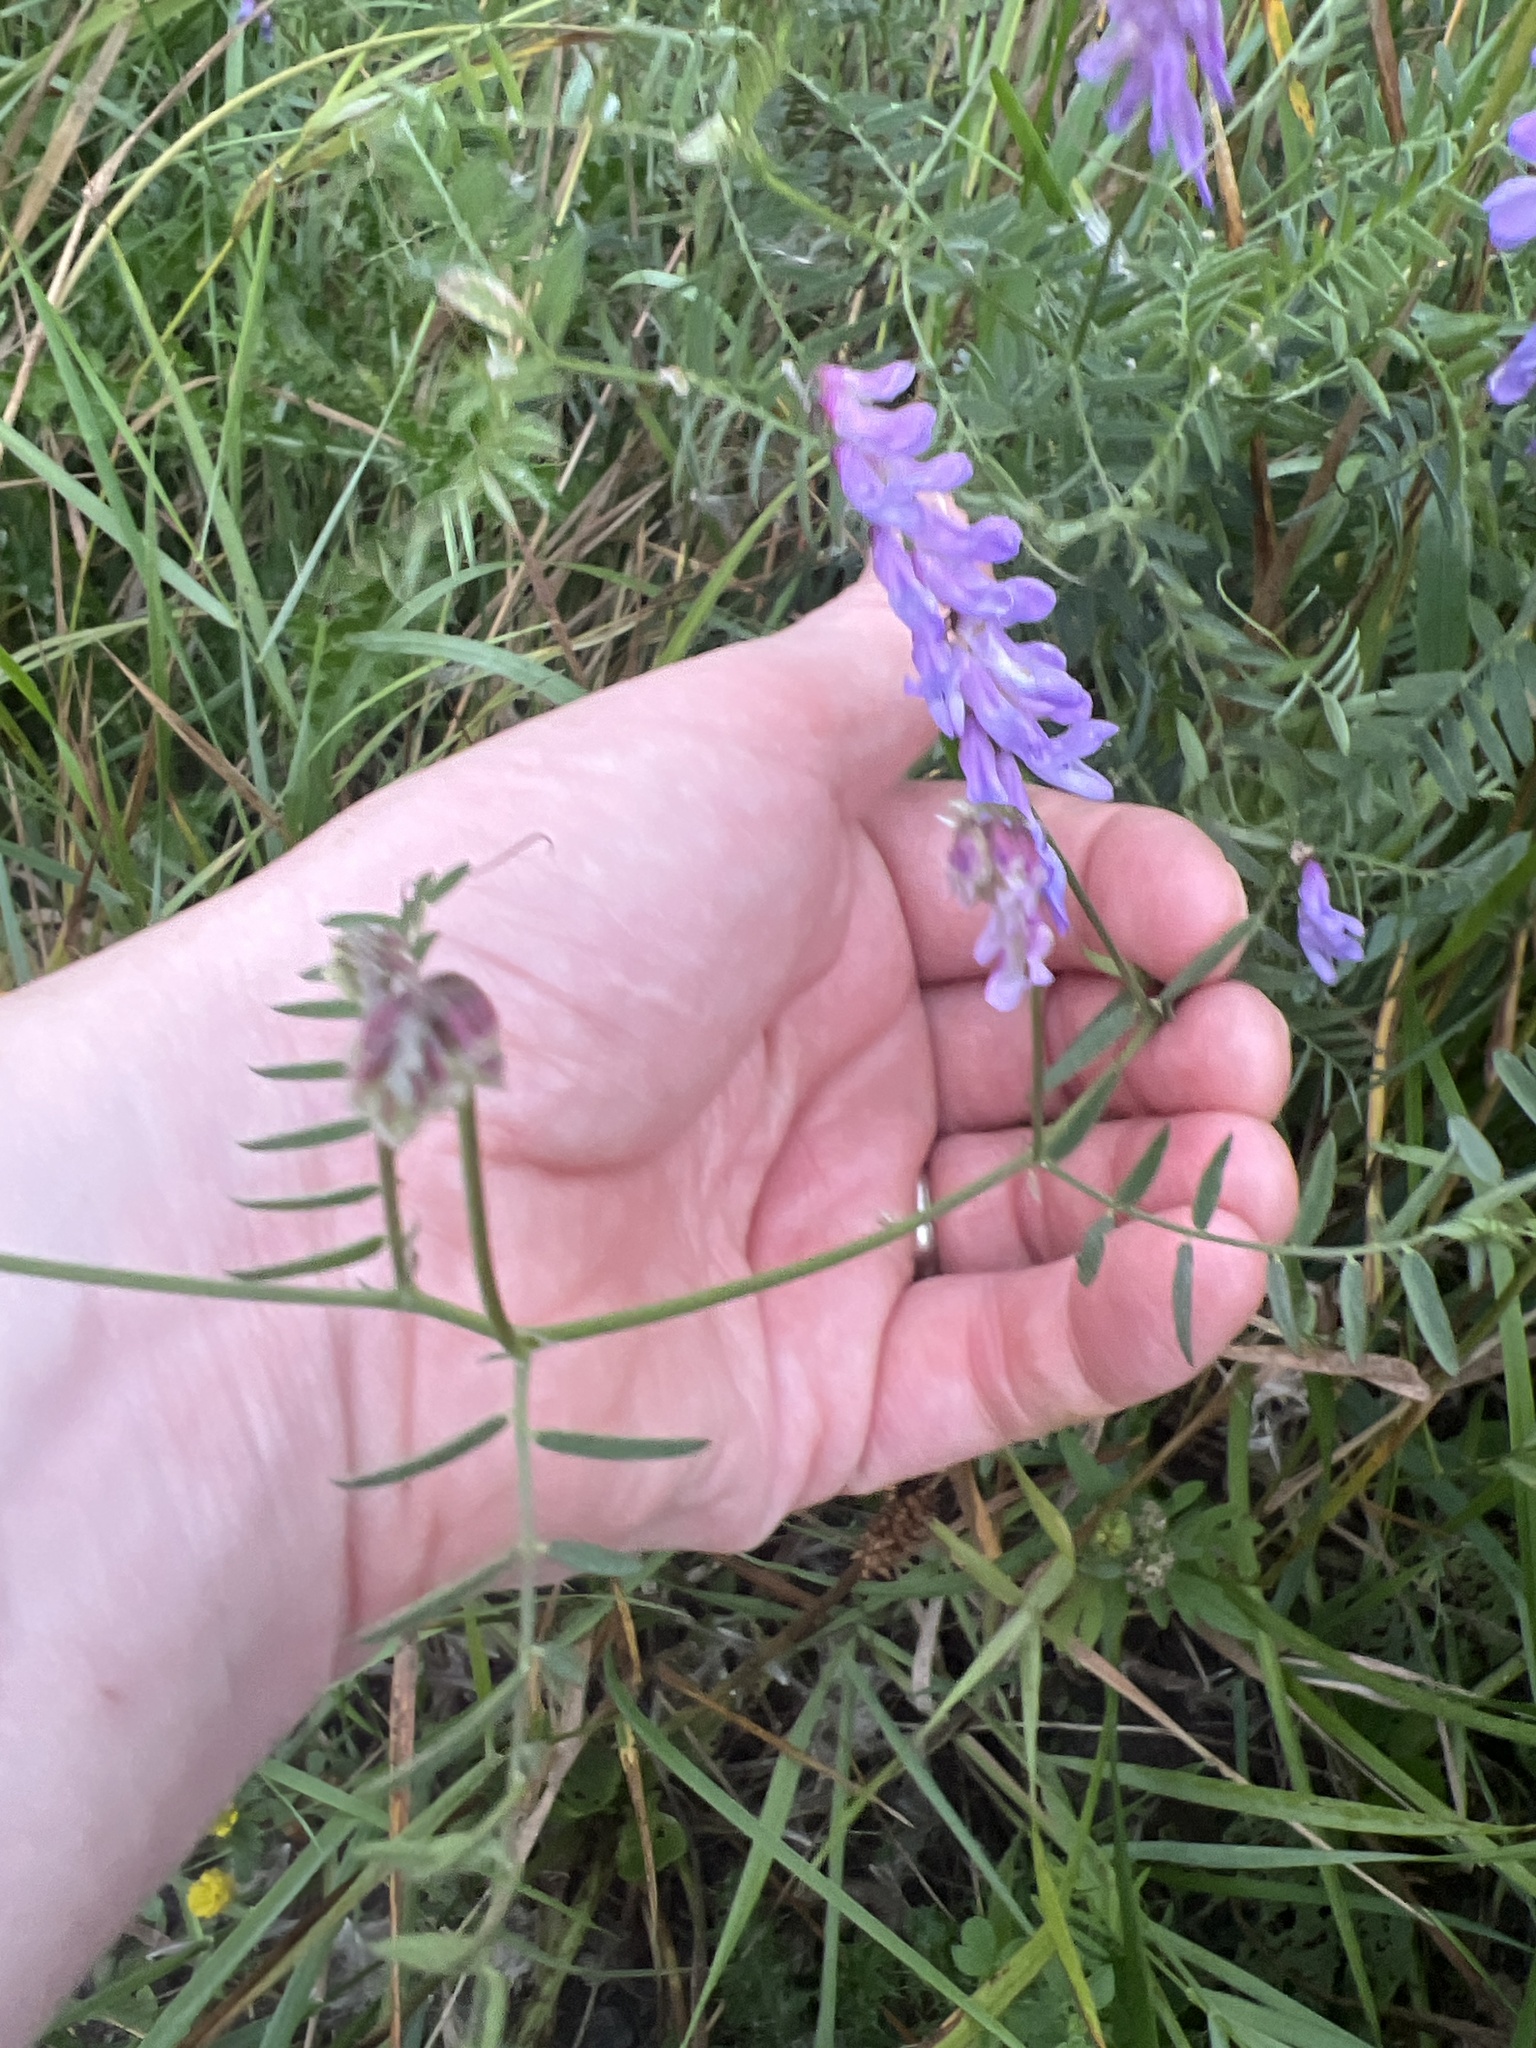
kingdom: Plantae
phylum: Tracheophyta
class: Magnoliopsida
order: Fabales
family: Fabaceae
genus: Vicia
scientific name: Vicia cracca
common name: Bird vetch
